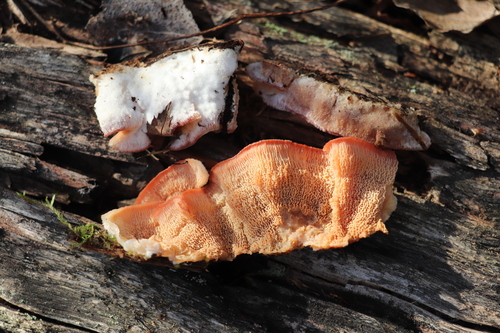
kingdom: Fungi
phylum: Basidiomycota
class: Agaricomycetes
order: Polyporales
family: Meruliaceae
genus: Phlebia
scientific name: Phlebia tremellosa
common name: Jelly rot
